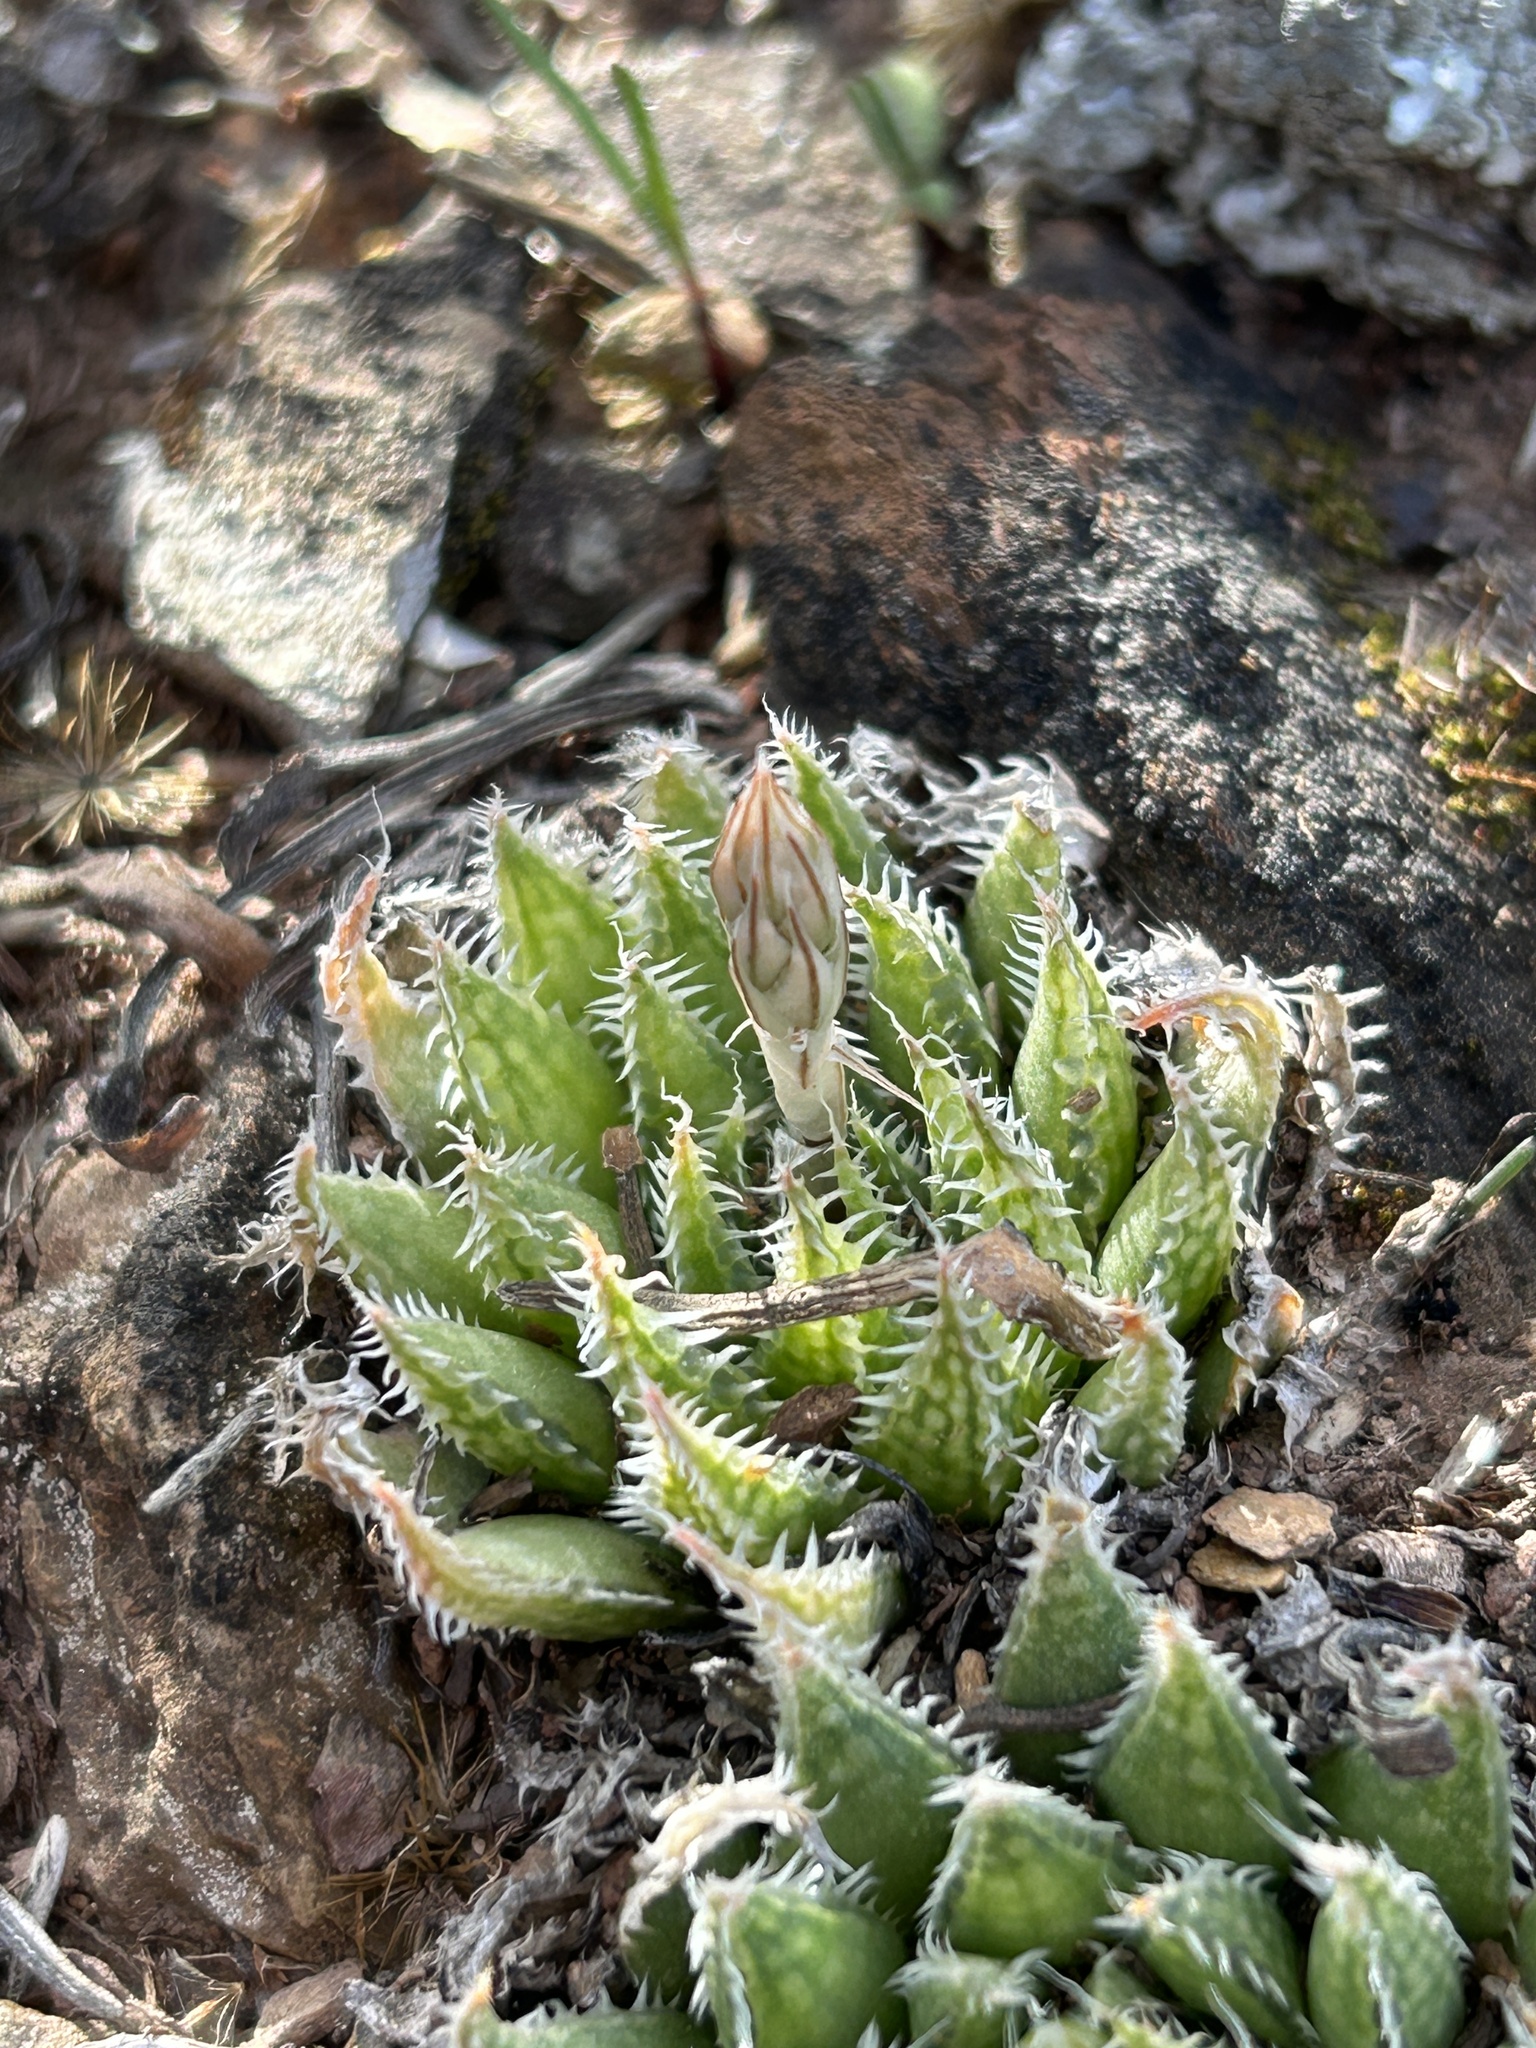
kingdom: Plantae
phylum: Tracheophyta
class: Liliopsida
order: Asparagales
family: Asphodelaceae
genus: Haworthia
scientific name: Haworthia herbacea
